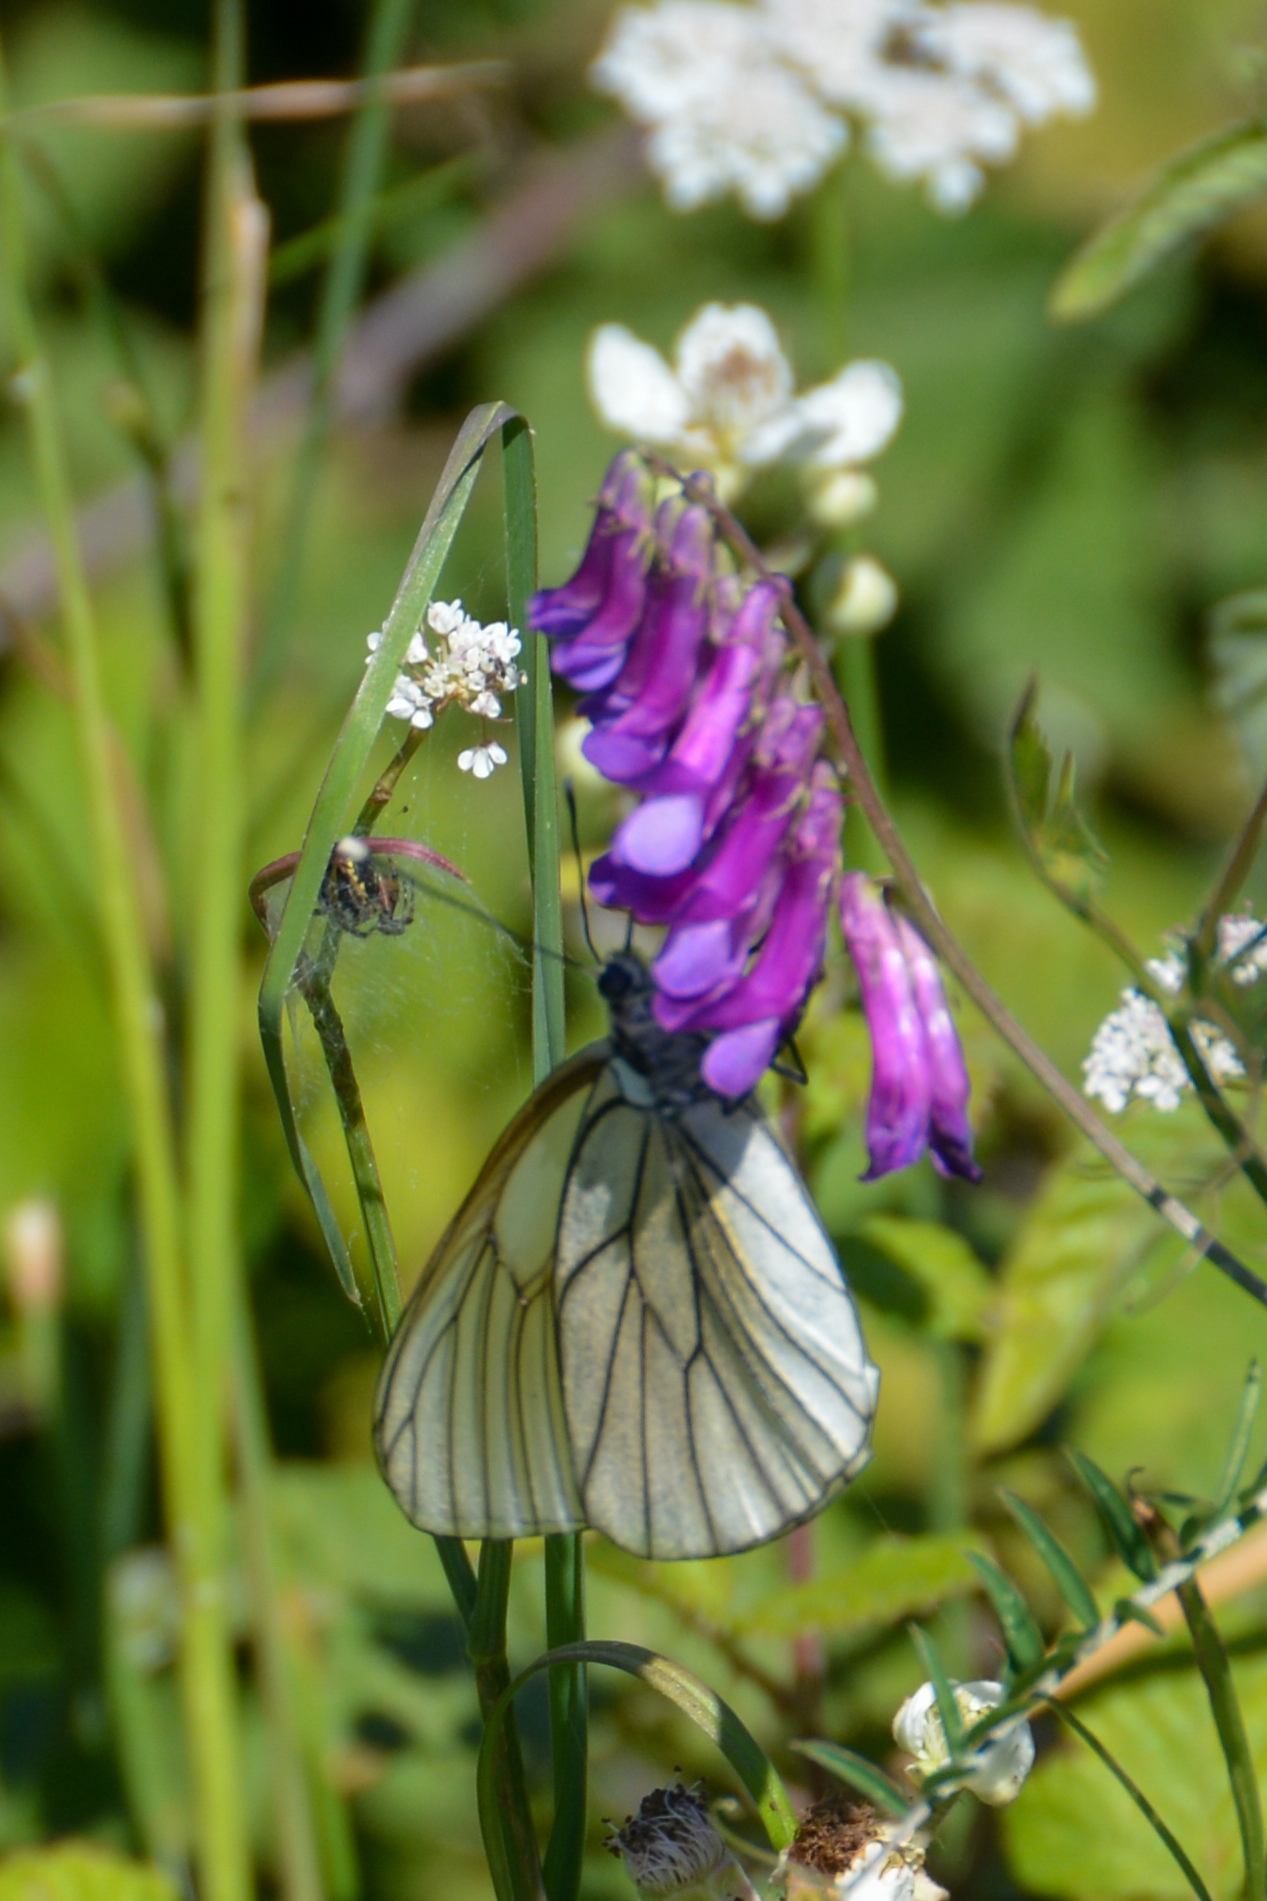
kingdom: Animalia
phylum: Arthropoda
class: Insecta
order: Lepidoptera
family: Pieridae
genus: Aporia
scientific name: Aporia crataegi
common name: Black-veined white
